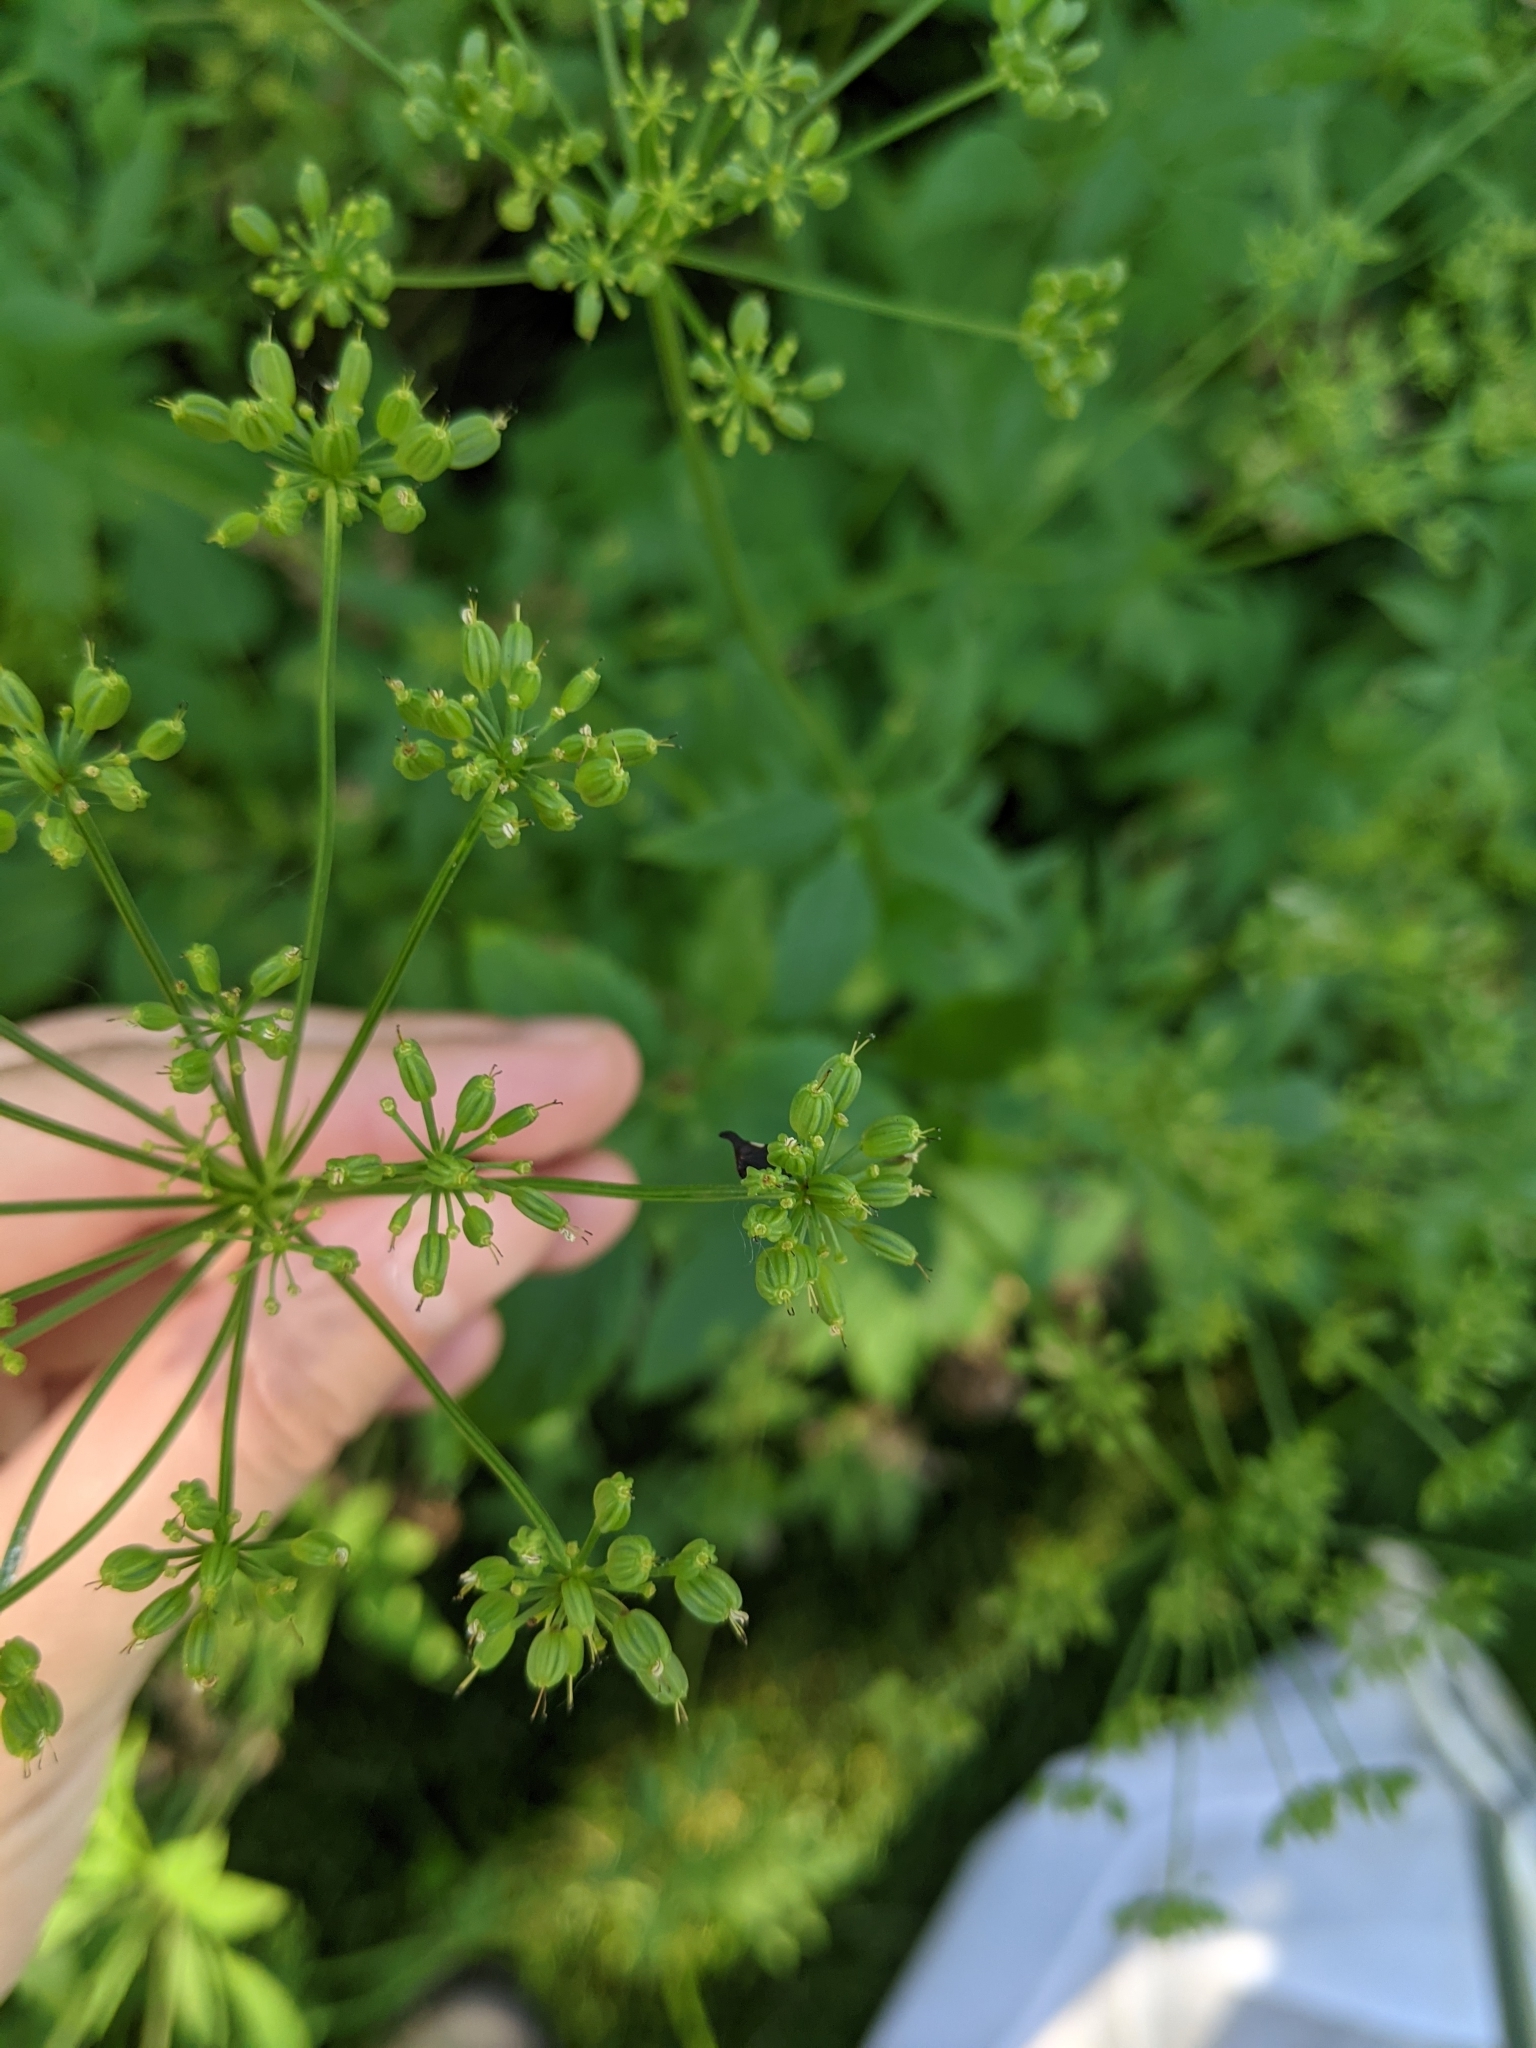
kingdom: Animalia
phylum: Arthropoda
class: Insecta
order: Hemiptera
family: Membracidae
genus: Enchenopa
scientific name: Enchenopa
